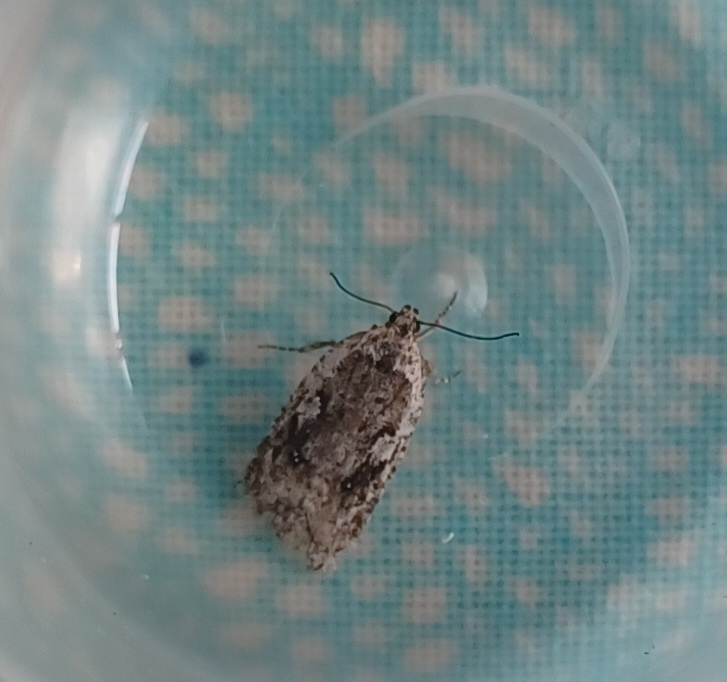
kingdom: Animalia
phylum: Arthropoda
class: Insecta
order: Lepidoptera
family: Depressariidae
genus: Exaeretia
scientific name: Exaeretia ciniflonella
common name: Scotch flat-body
